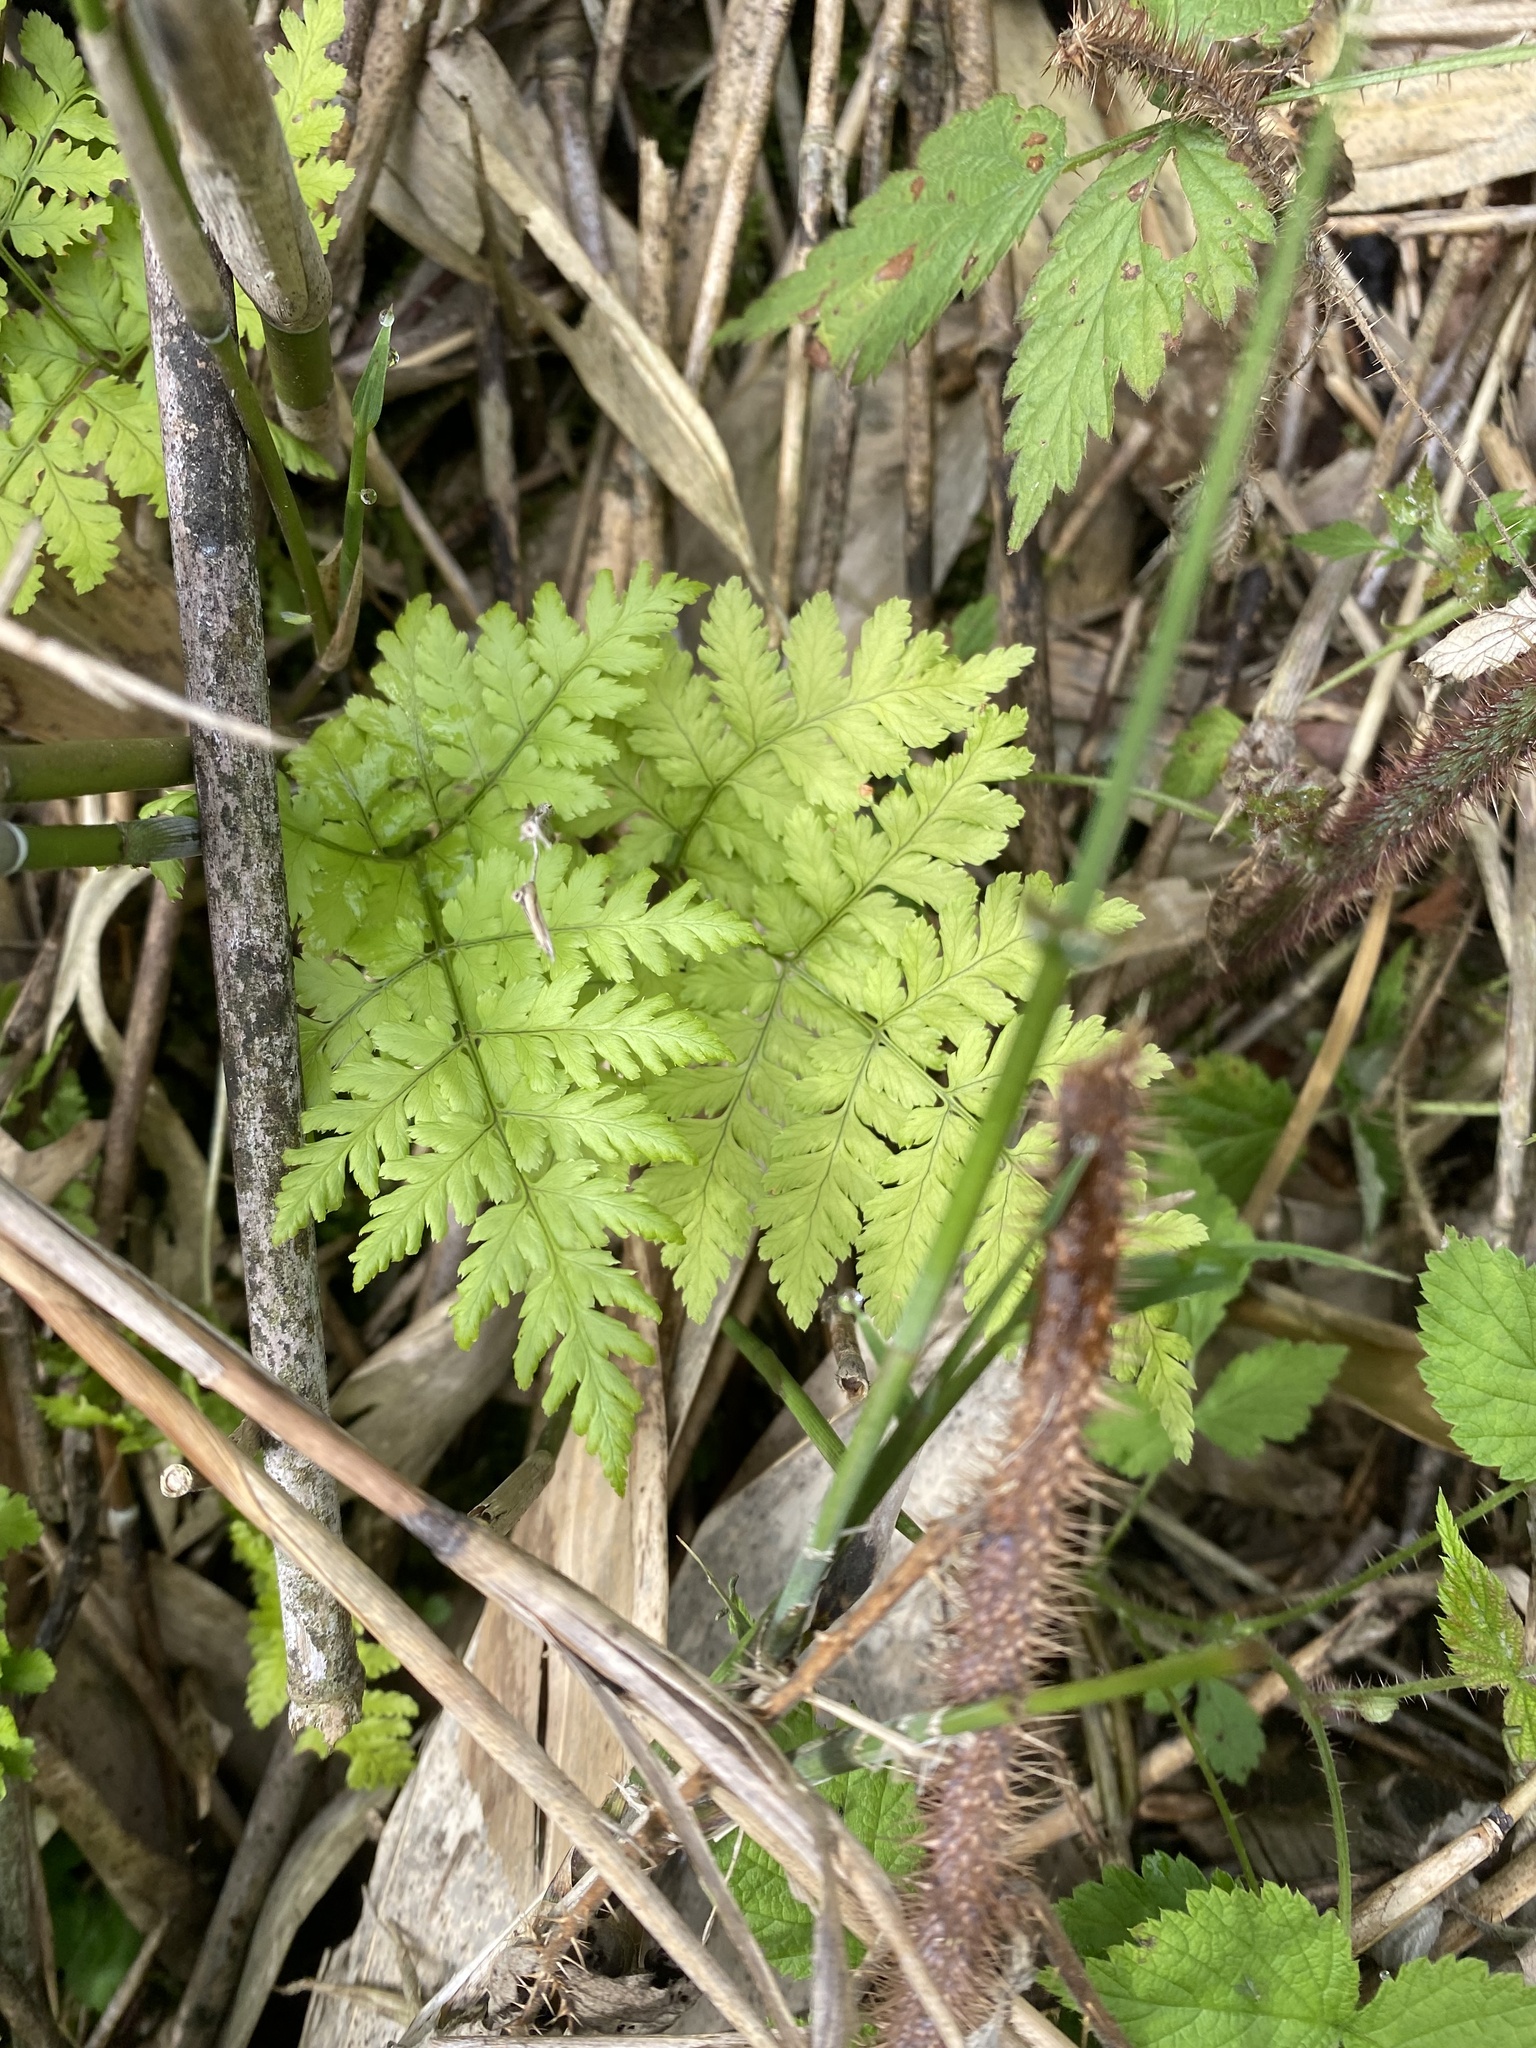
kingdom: Plantae
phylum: Tracheophyta
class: Polypodiopsida
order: Polypodiales
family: Dryopteridaceae
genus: Dryopteris
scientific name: Dryopteris expansa
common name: Northern buckler fern
